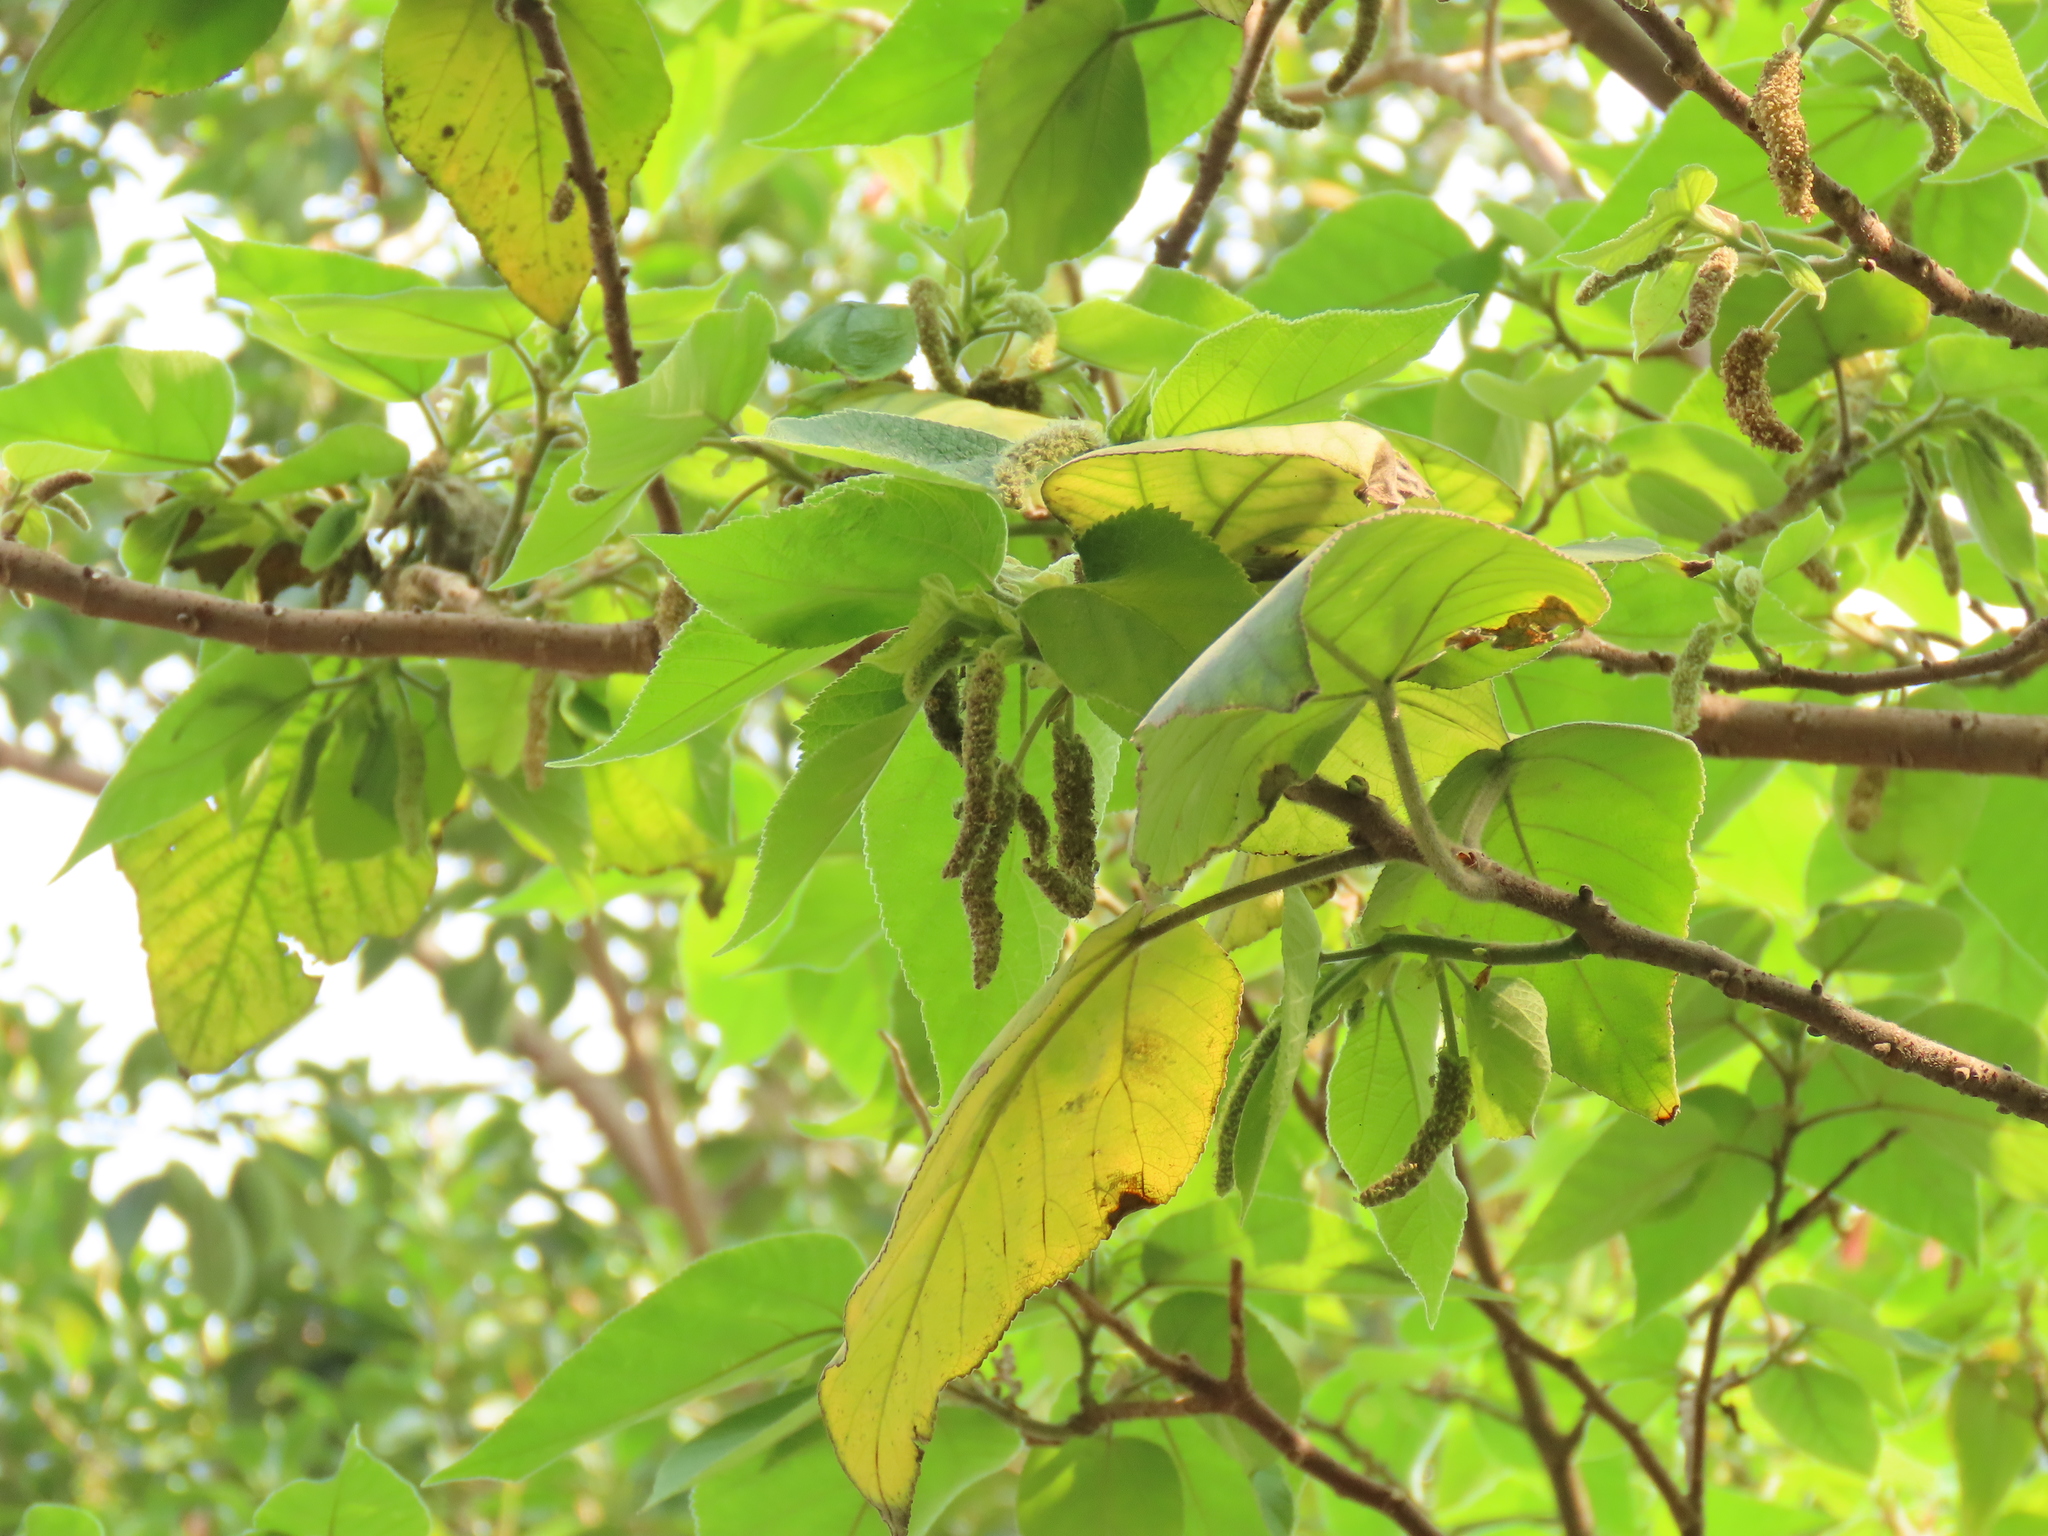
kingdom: Plantae
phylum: Tracheophyta
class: Magnoliopsida
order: Rosales
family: Moraceae
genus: Broussonetia
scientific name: Broussonetia papyrifera
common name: Paper mulberry
